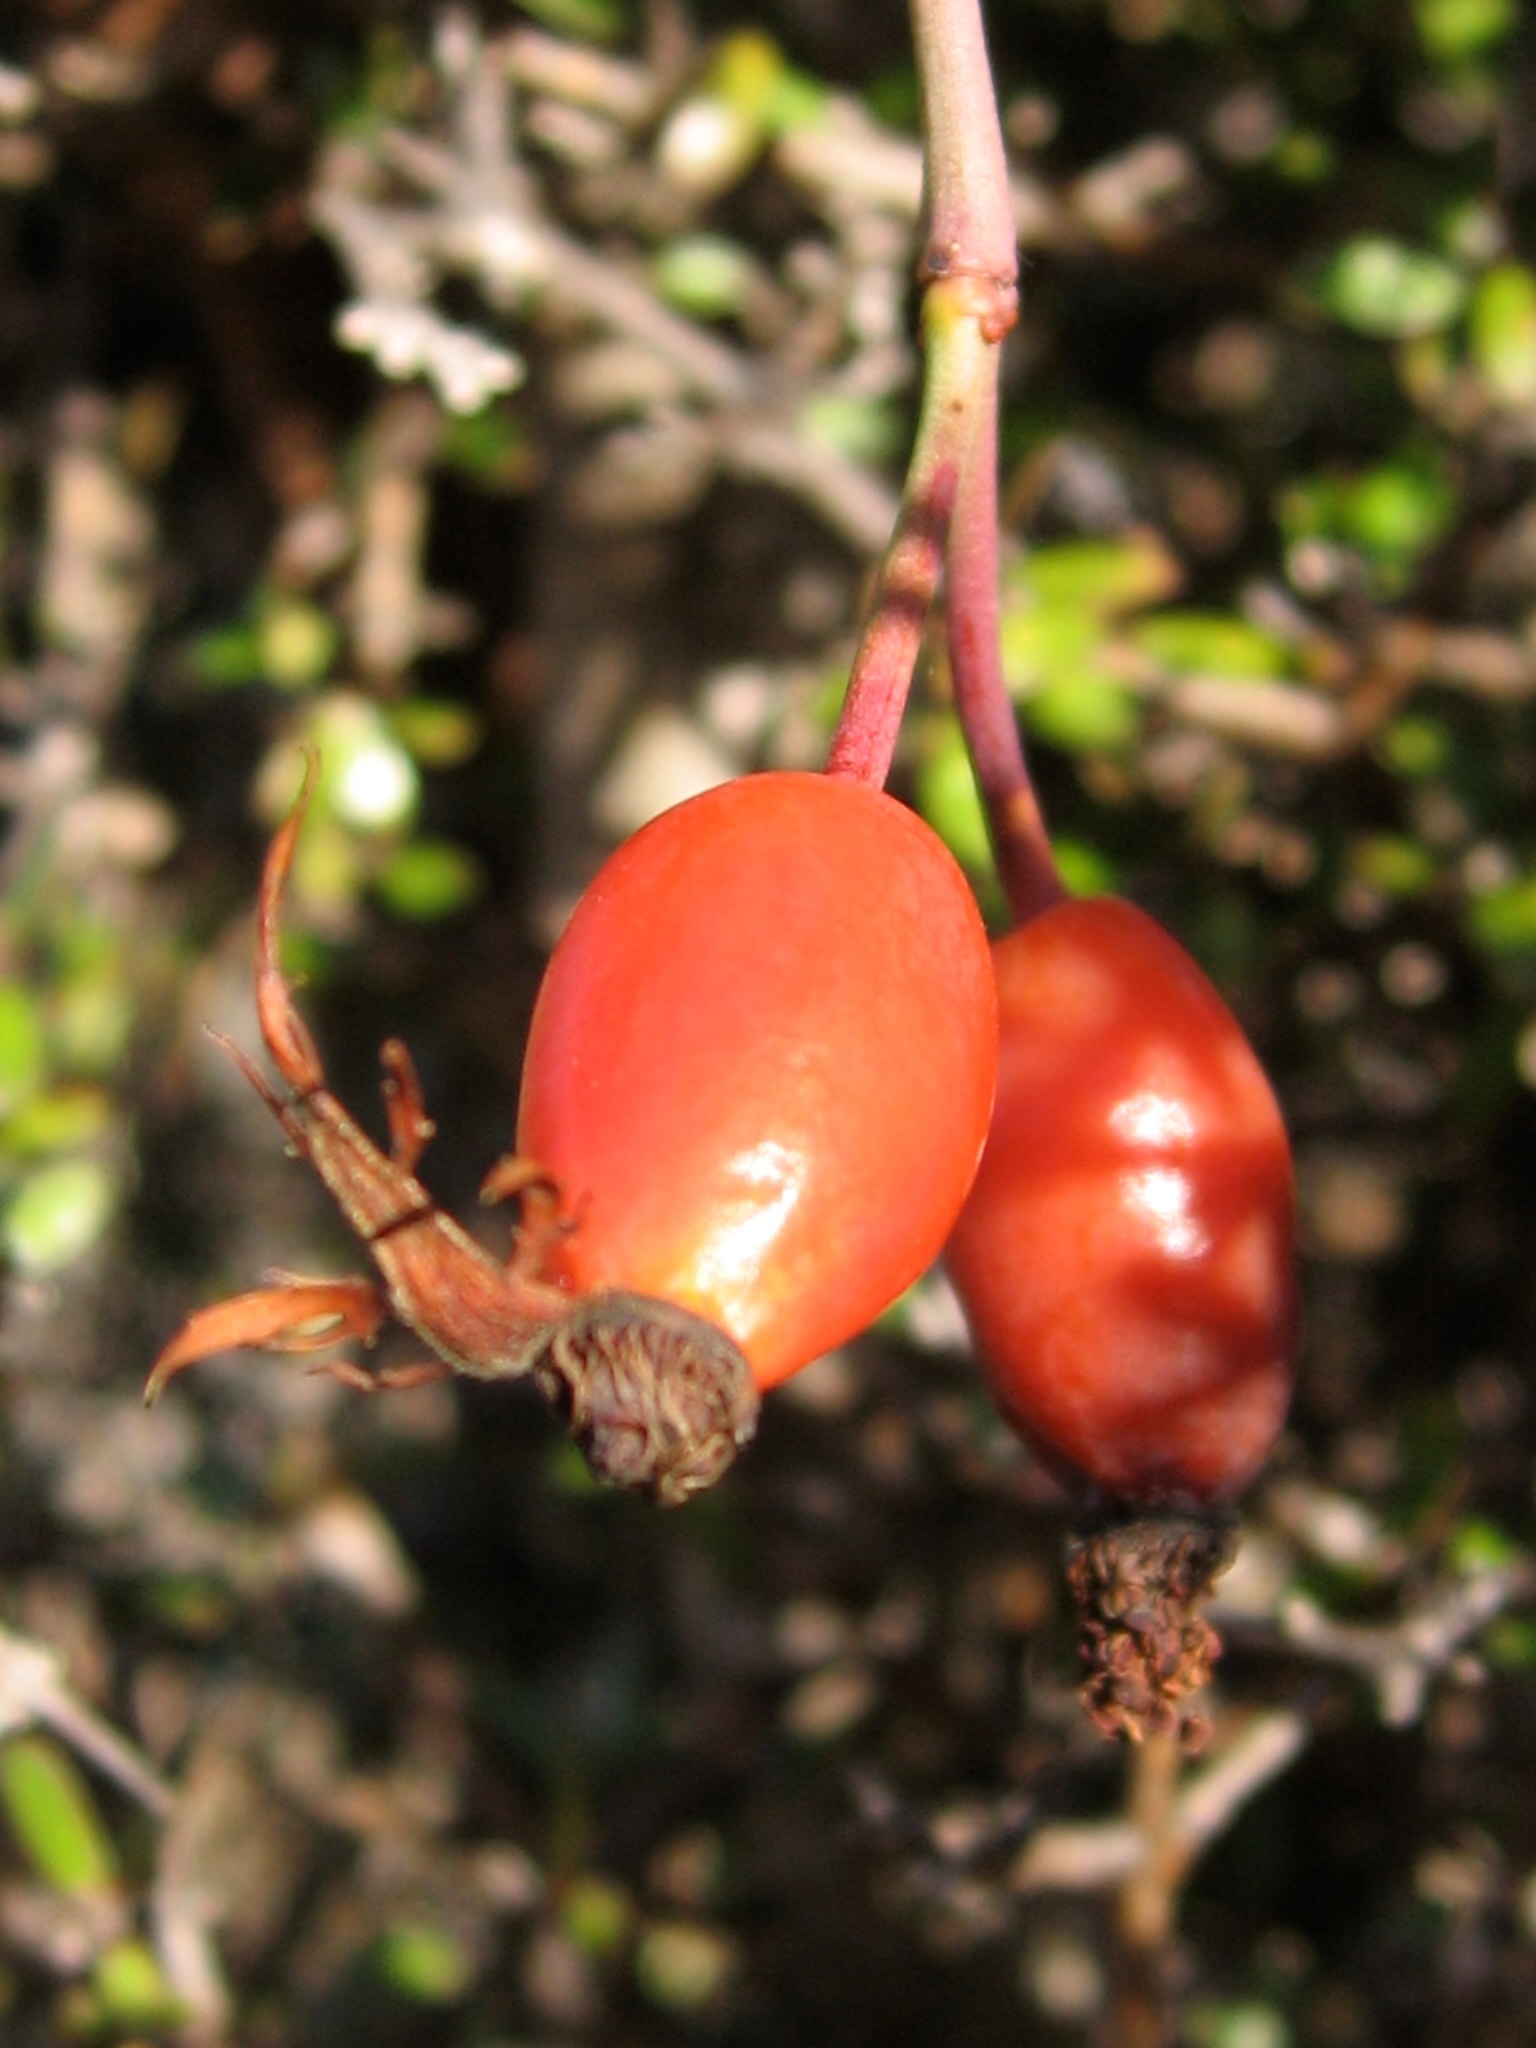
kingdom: Plantae
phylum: Tracheophyta
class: Magnoliopsida
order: Rosales
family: Rosaceae
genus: Rosa
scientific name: Rosa rubiginosa
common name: Sweet-briar
